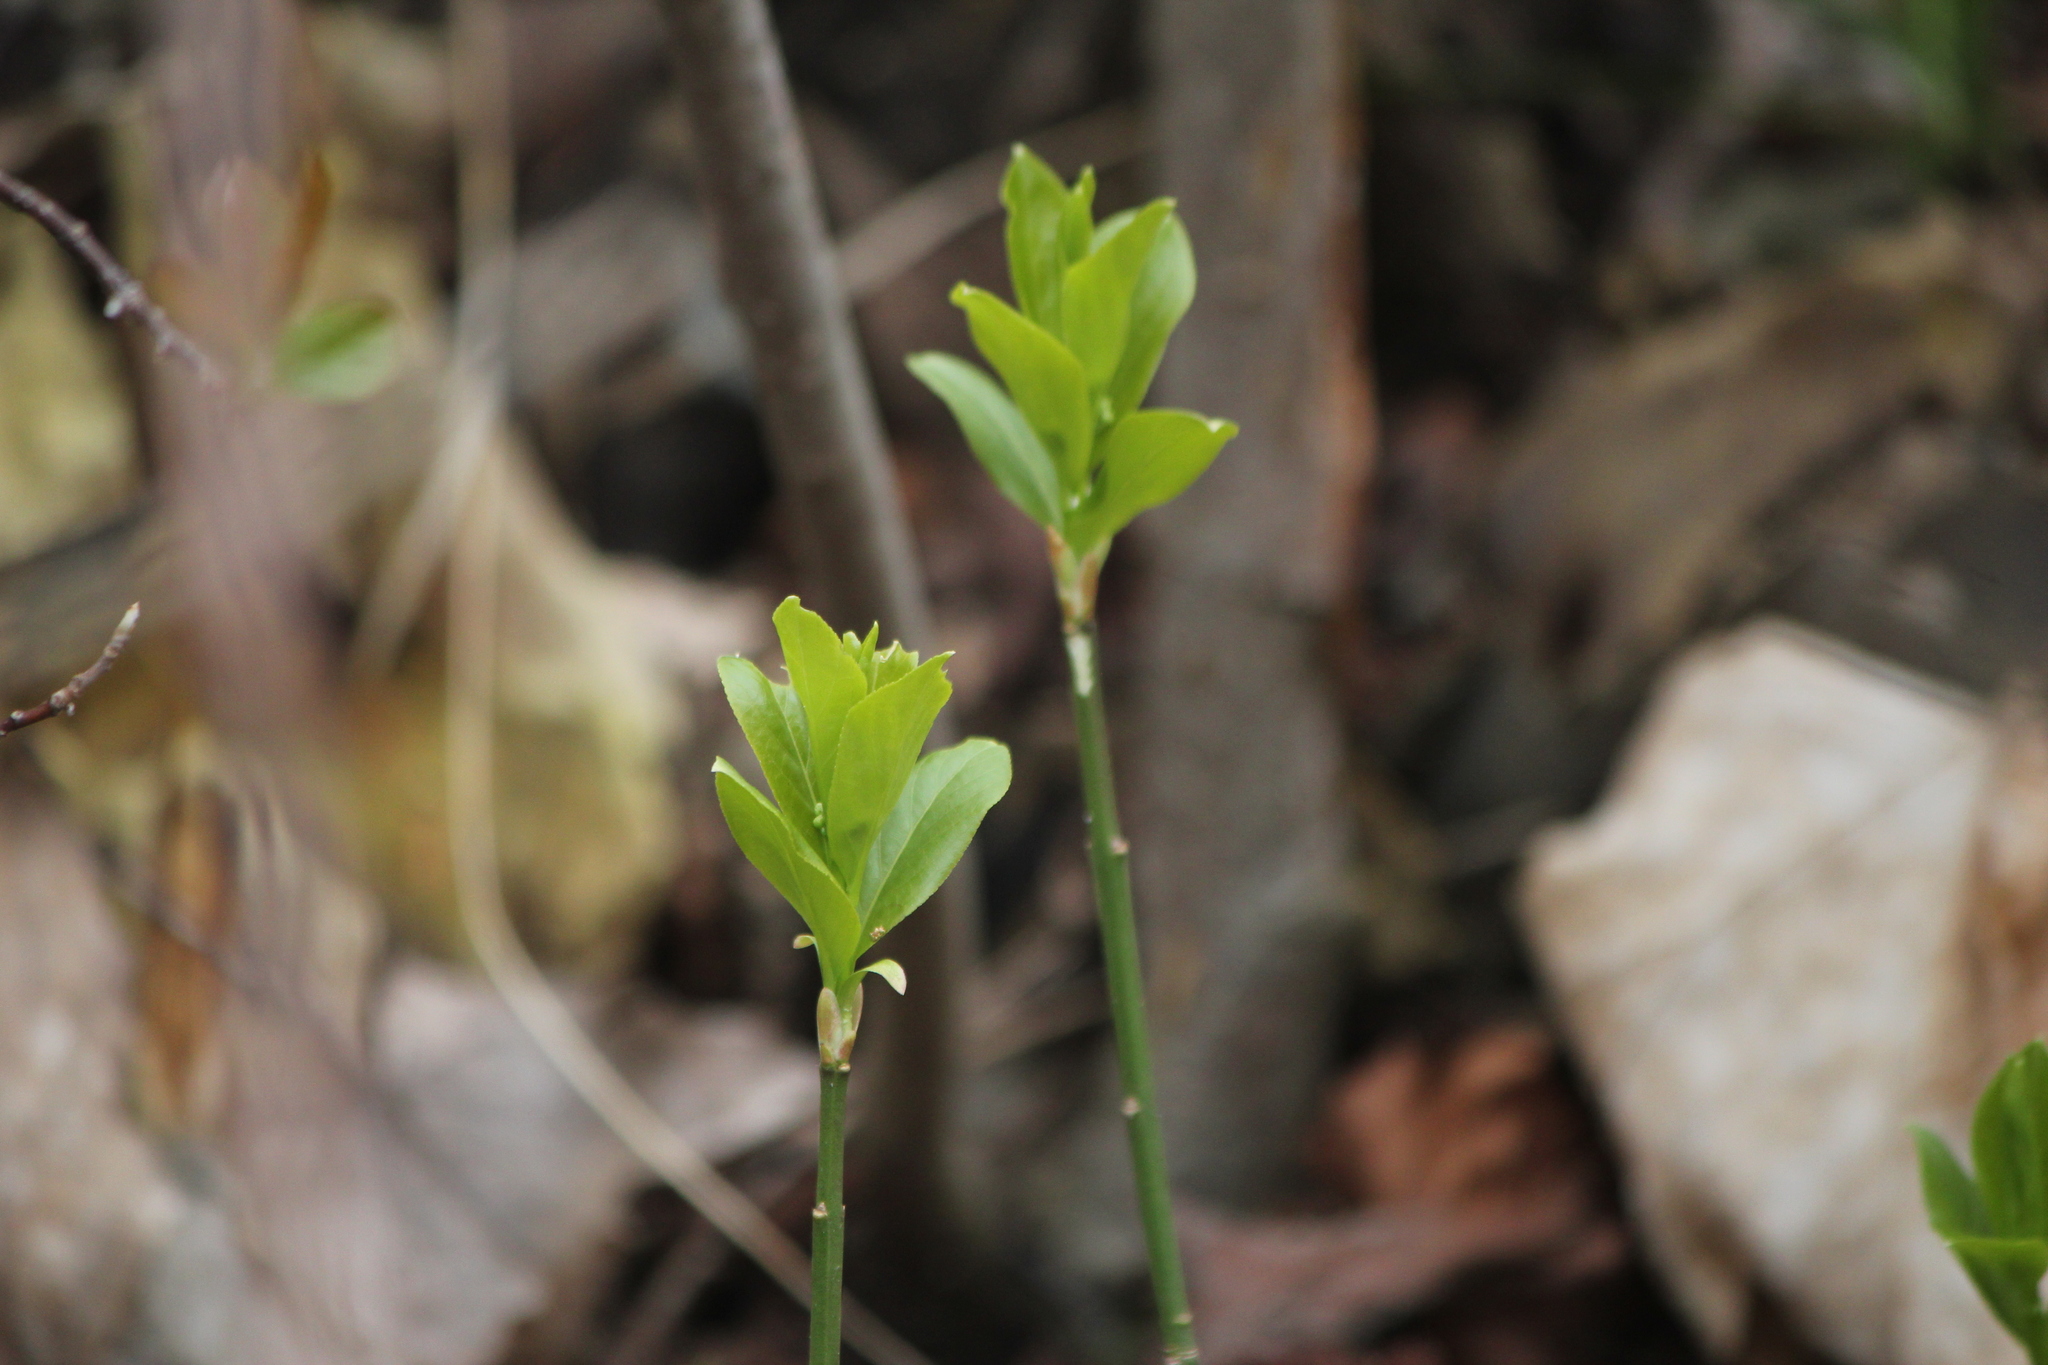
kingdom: Plantae
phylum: Tracheophyta
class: Magnoliopsida
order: Celastrales
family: Celastraceae
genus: Euonymus
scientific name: Euonymus obovatus
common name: Running strawberry-bush
